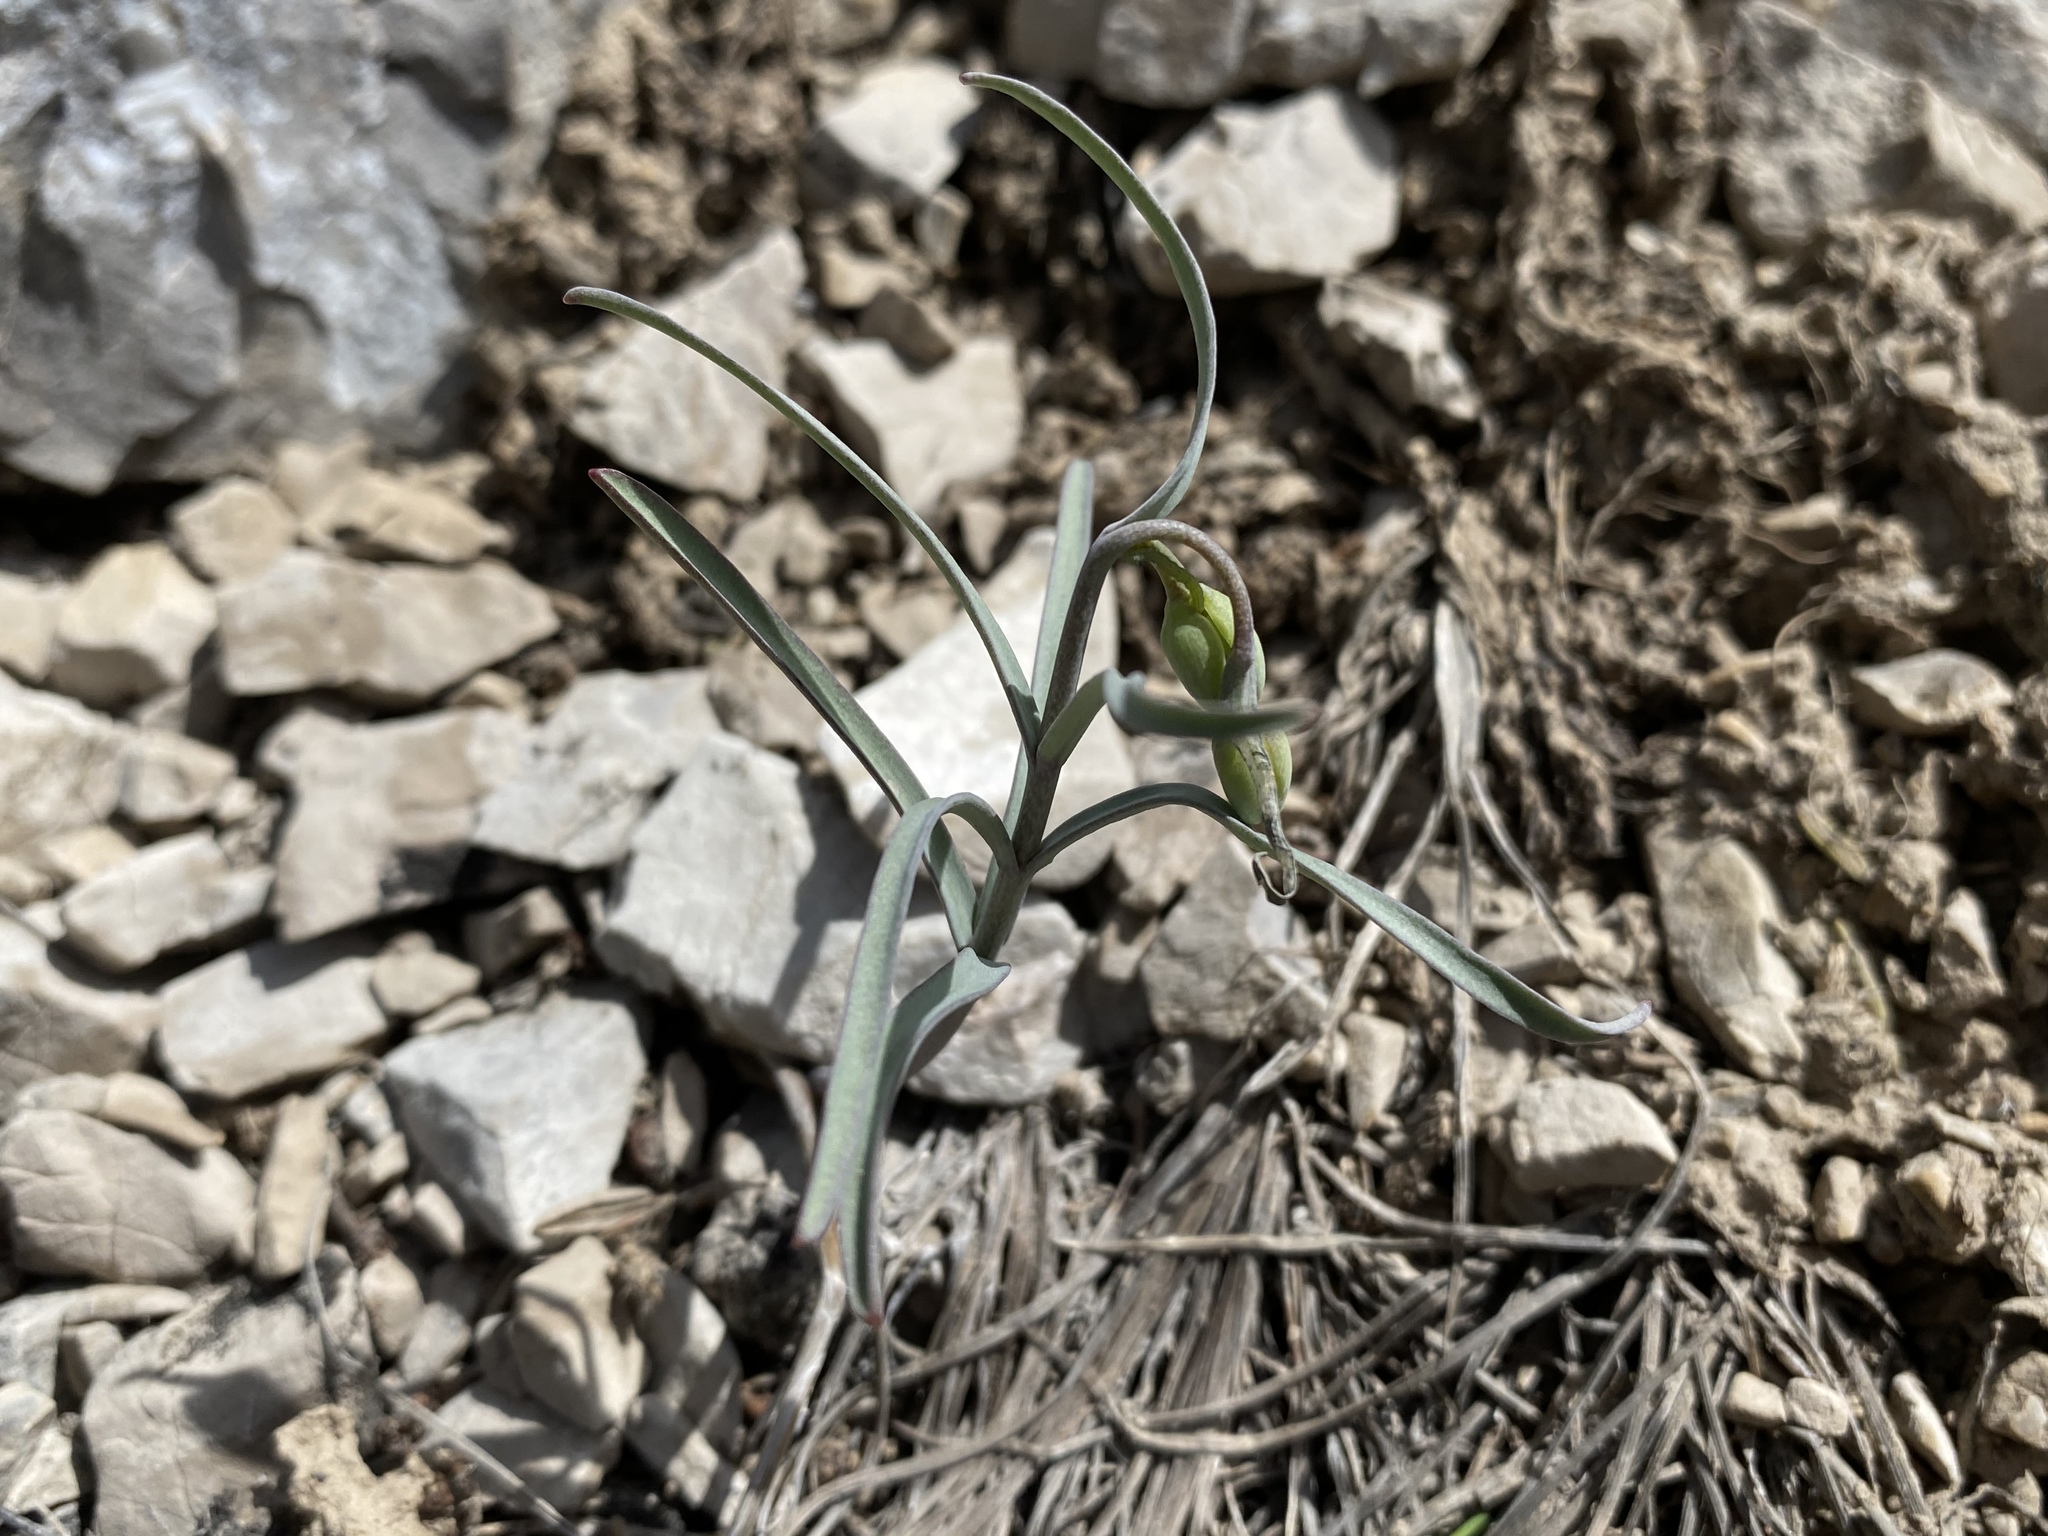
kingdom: Plantae
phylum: Tracheophyta
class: Liliopsida
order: Liliales
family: Liliaceae
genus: Fritillaria
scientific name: Fritillaria atropurpurea
